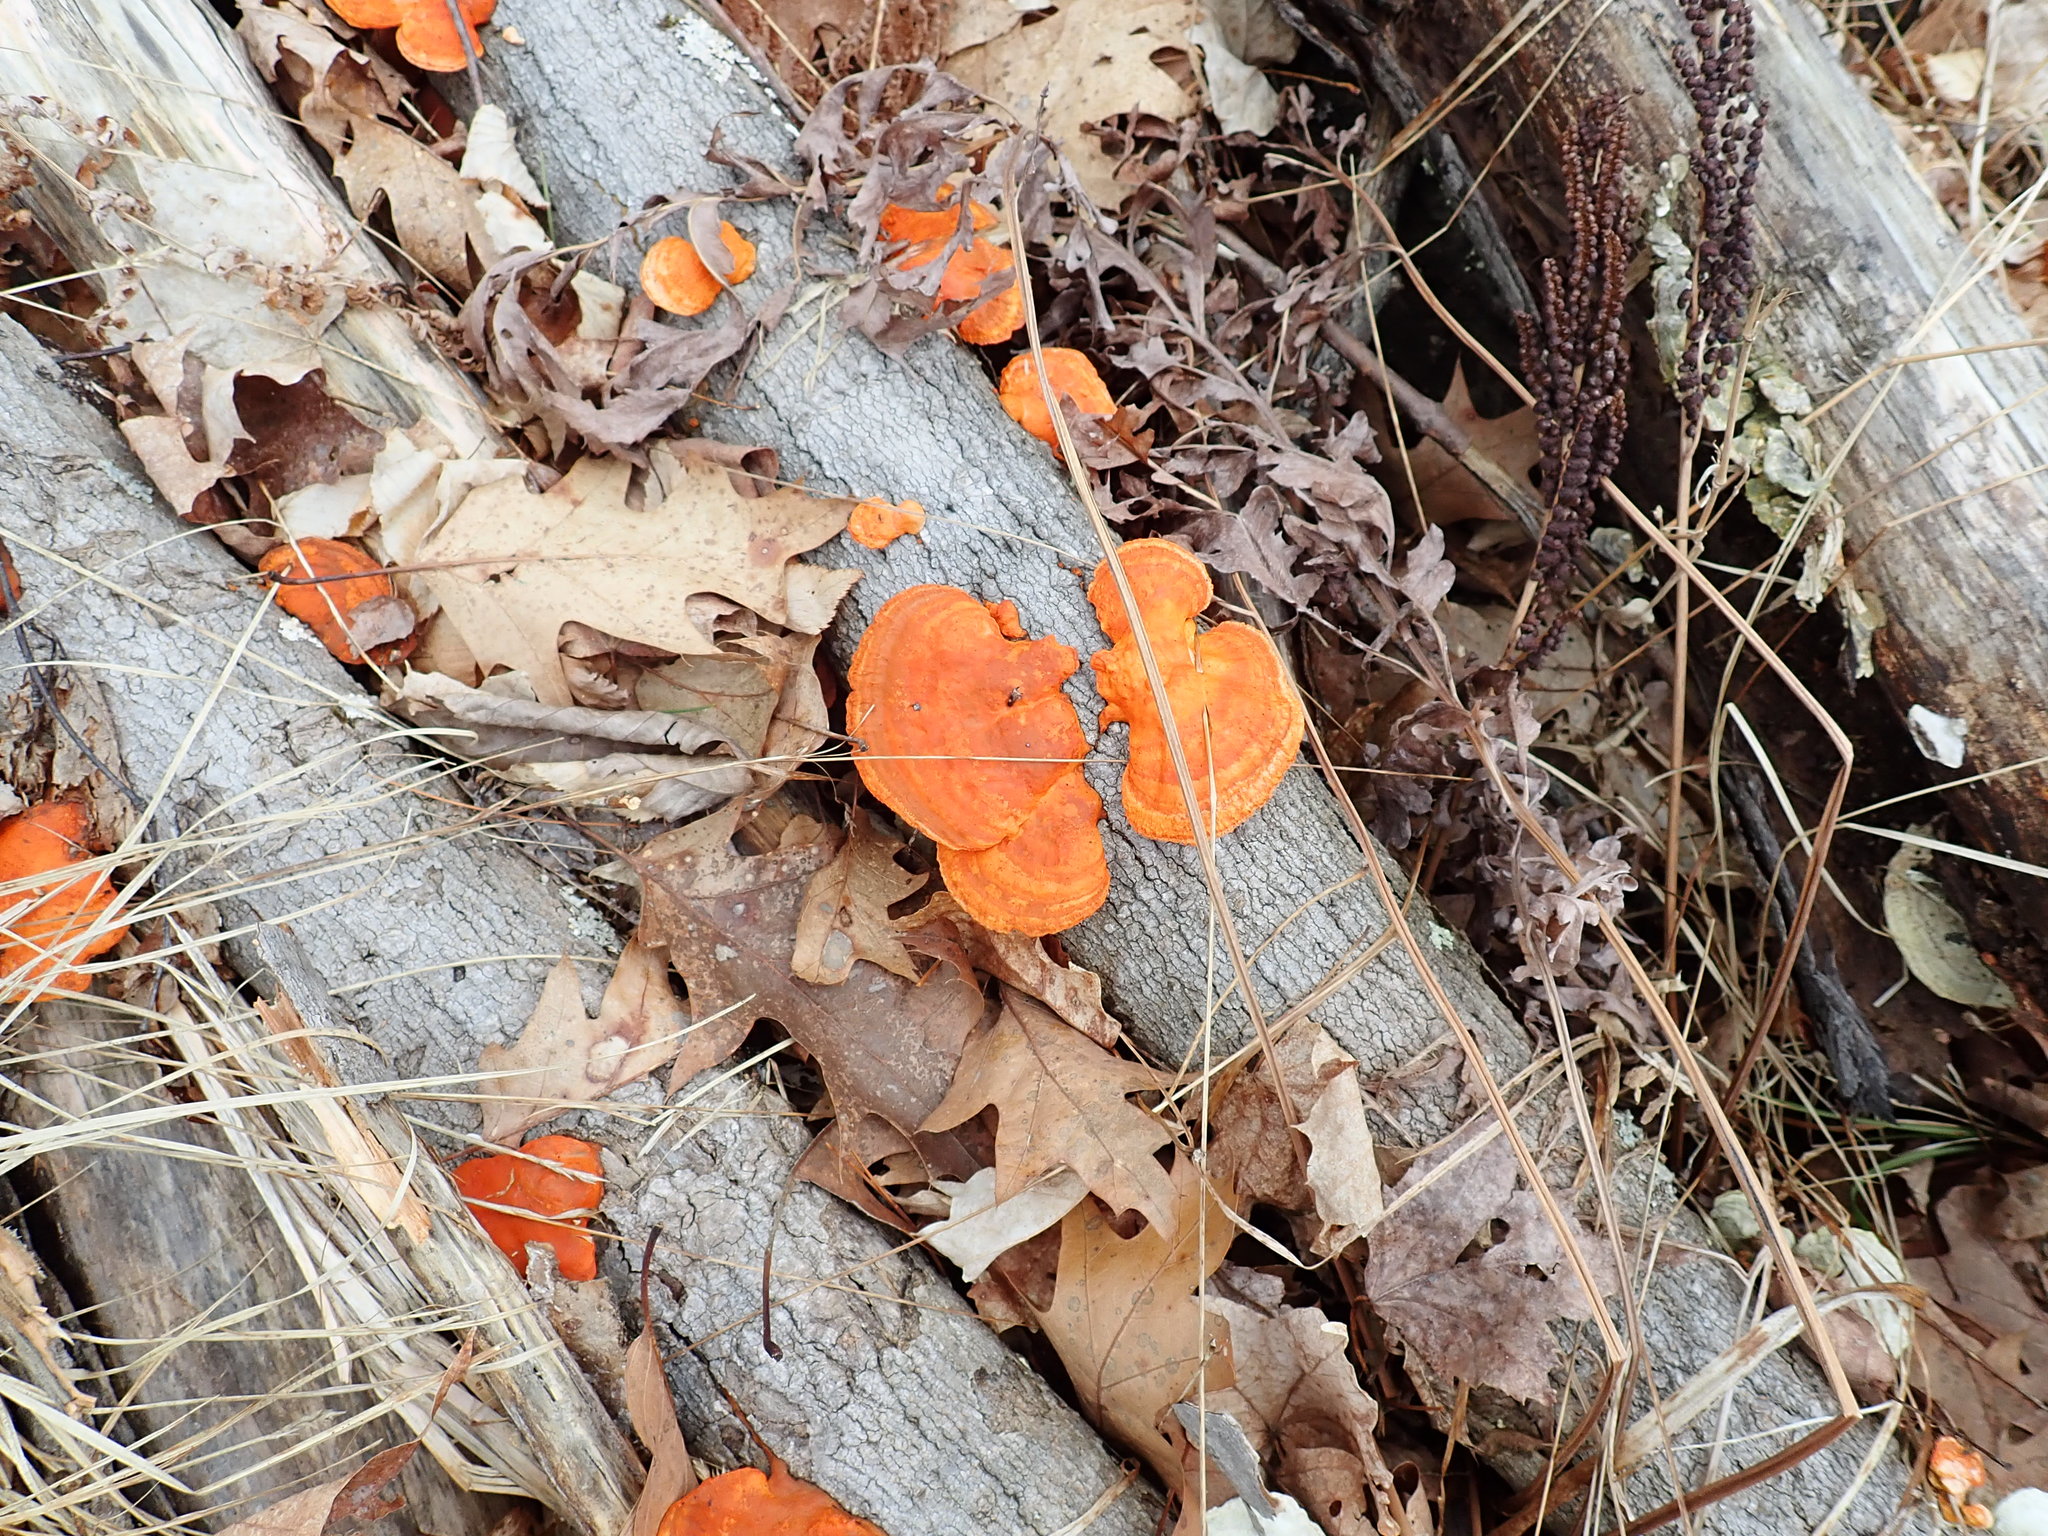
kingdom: Fungi
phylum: Basidiomycota
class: Agaricomycetes
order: Polyporales
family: Polyporaceae
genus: Trametes
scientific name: Trametes cinnabarina
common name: Northern cinnabar polypore
